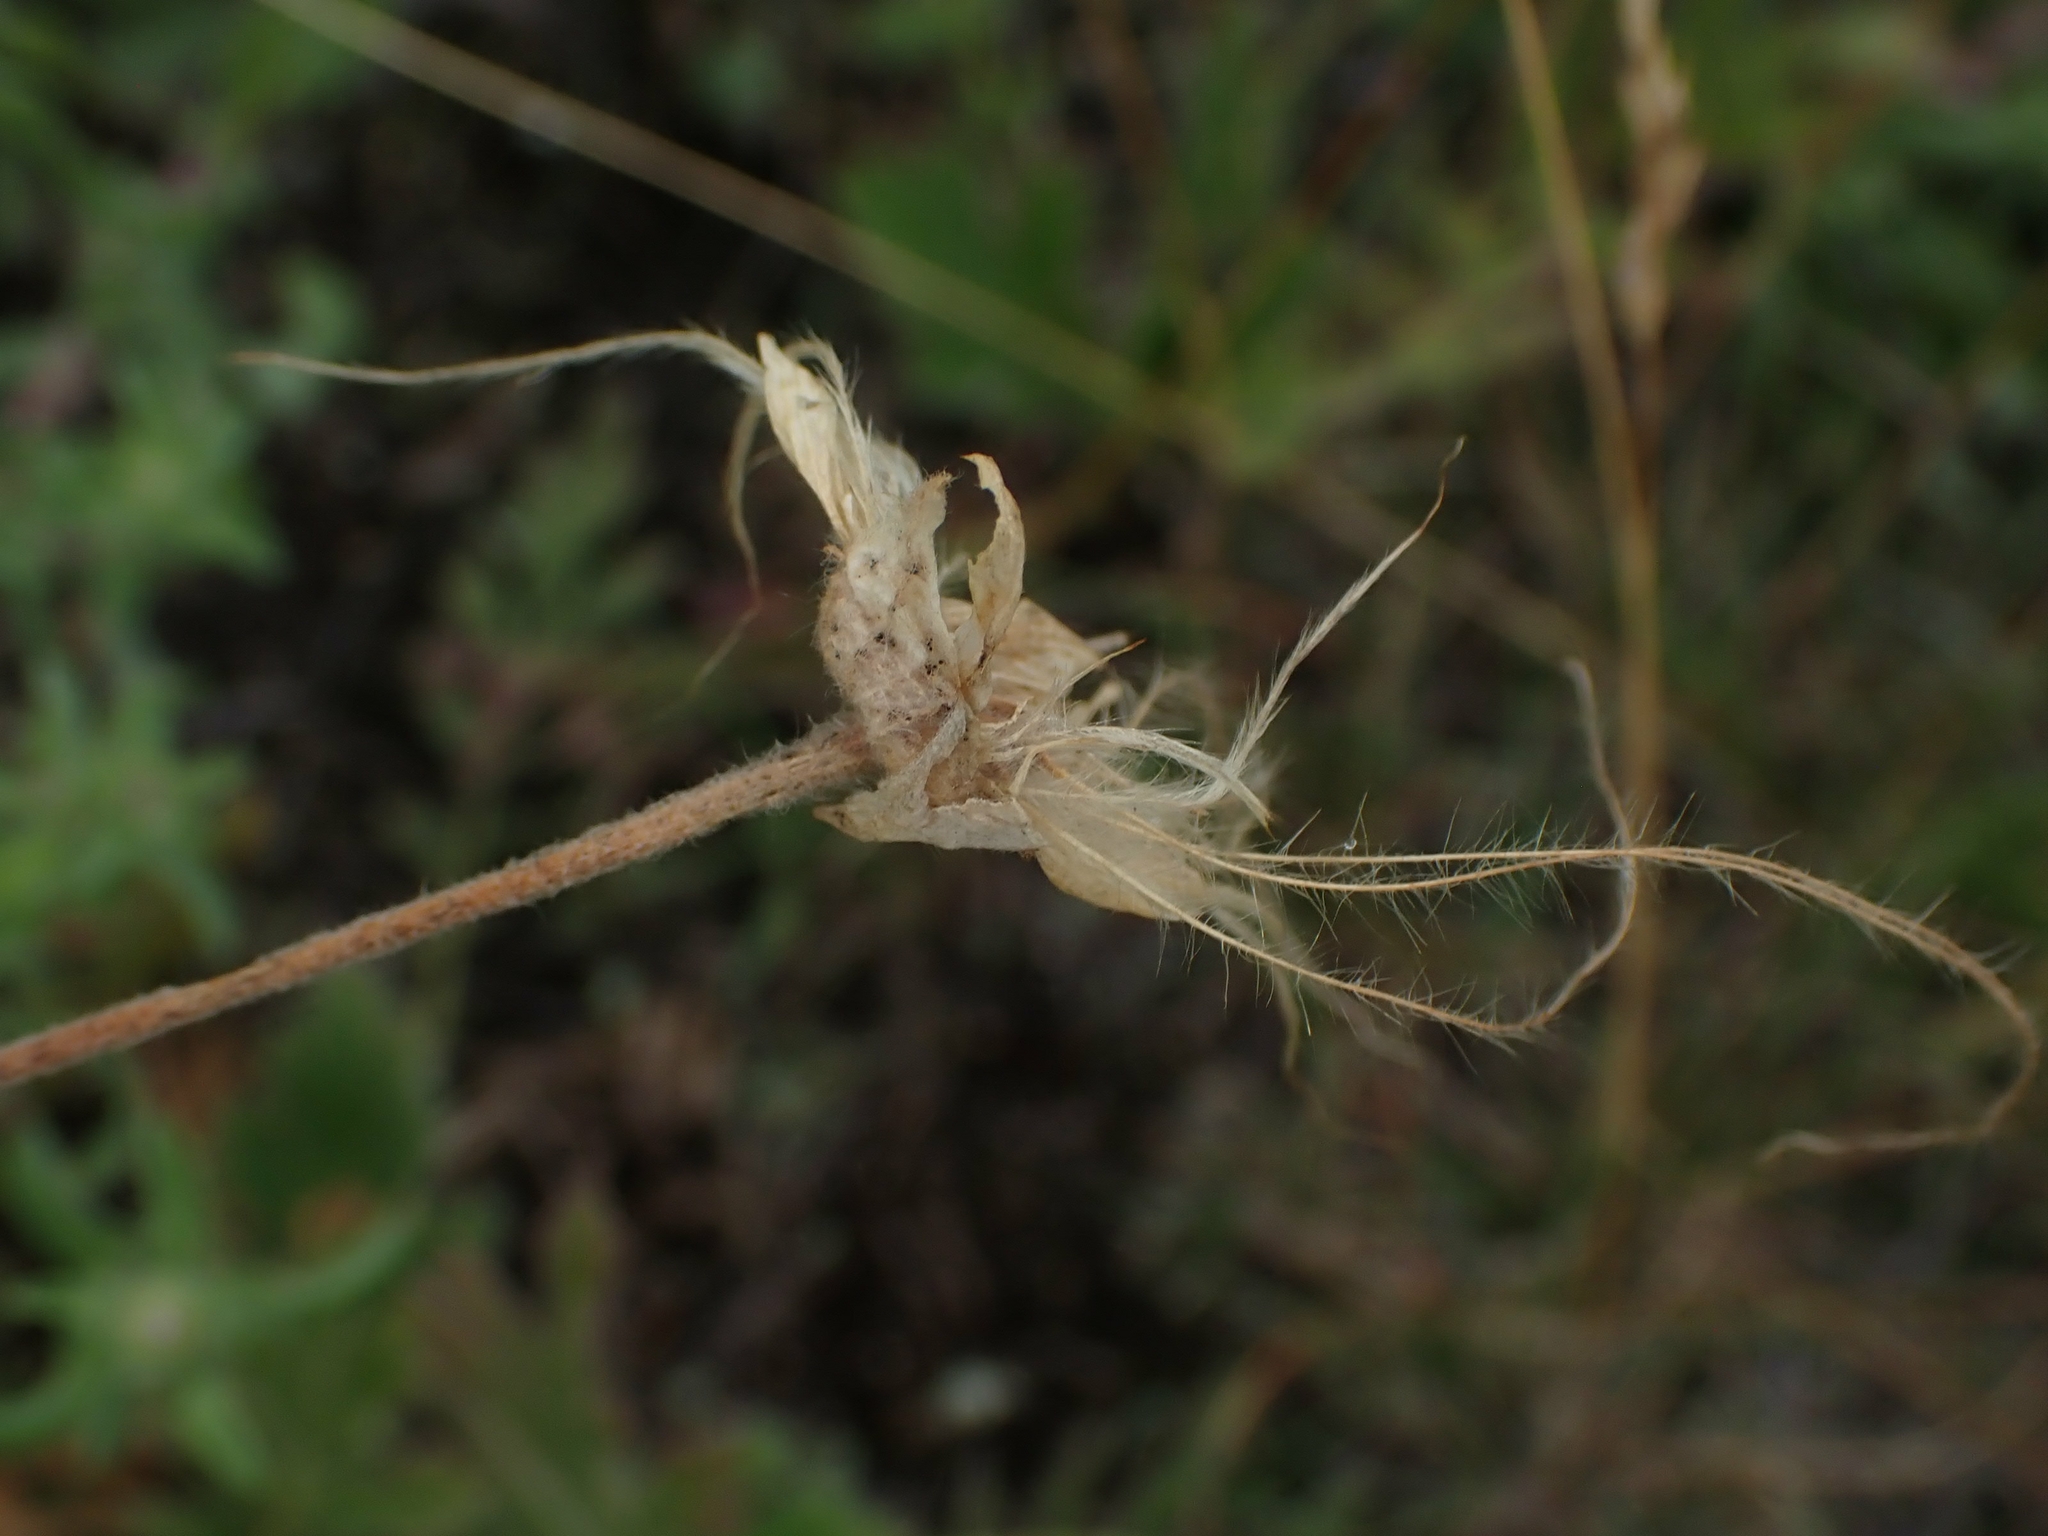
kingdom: Plantae
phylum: Tracheophyta
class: Magnoliopsida
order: Rosales
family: Rosaceae
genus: Geum
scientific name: Geum triflorum
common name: Old man's whiskers
